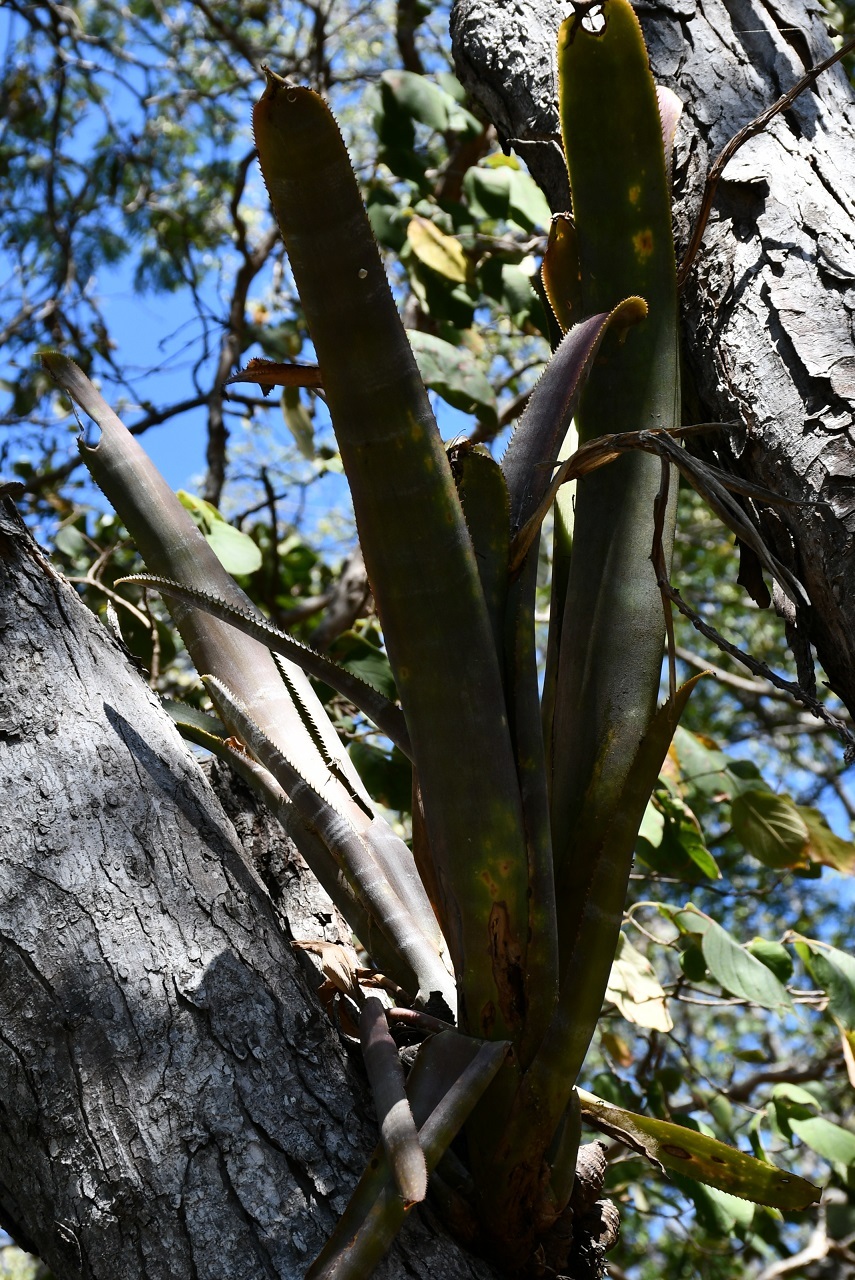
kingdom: Plantae
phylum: Tracheophyta
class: Liliopsida
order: Poales
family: Bromeliaceae
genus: Billbergia
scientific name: Billbergia pallidiflora
